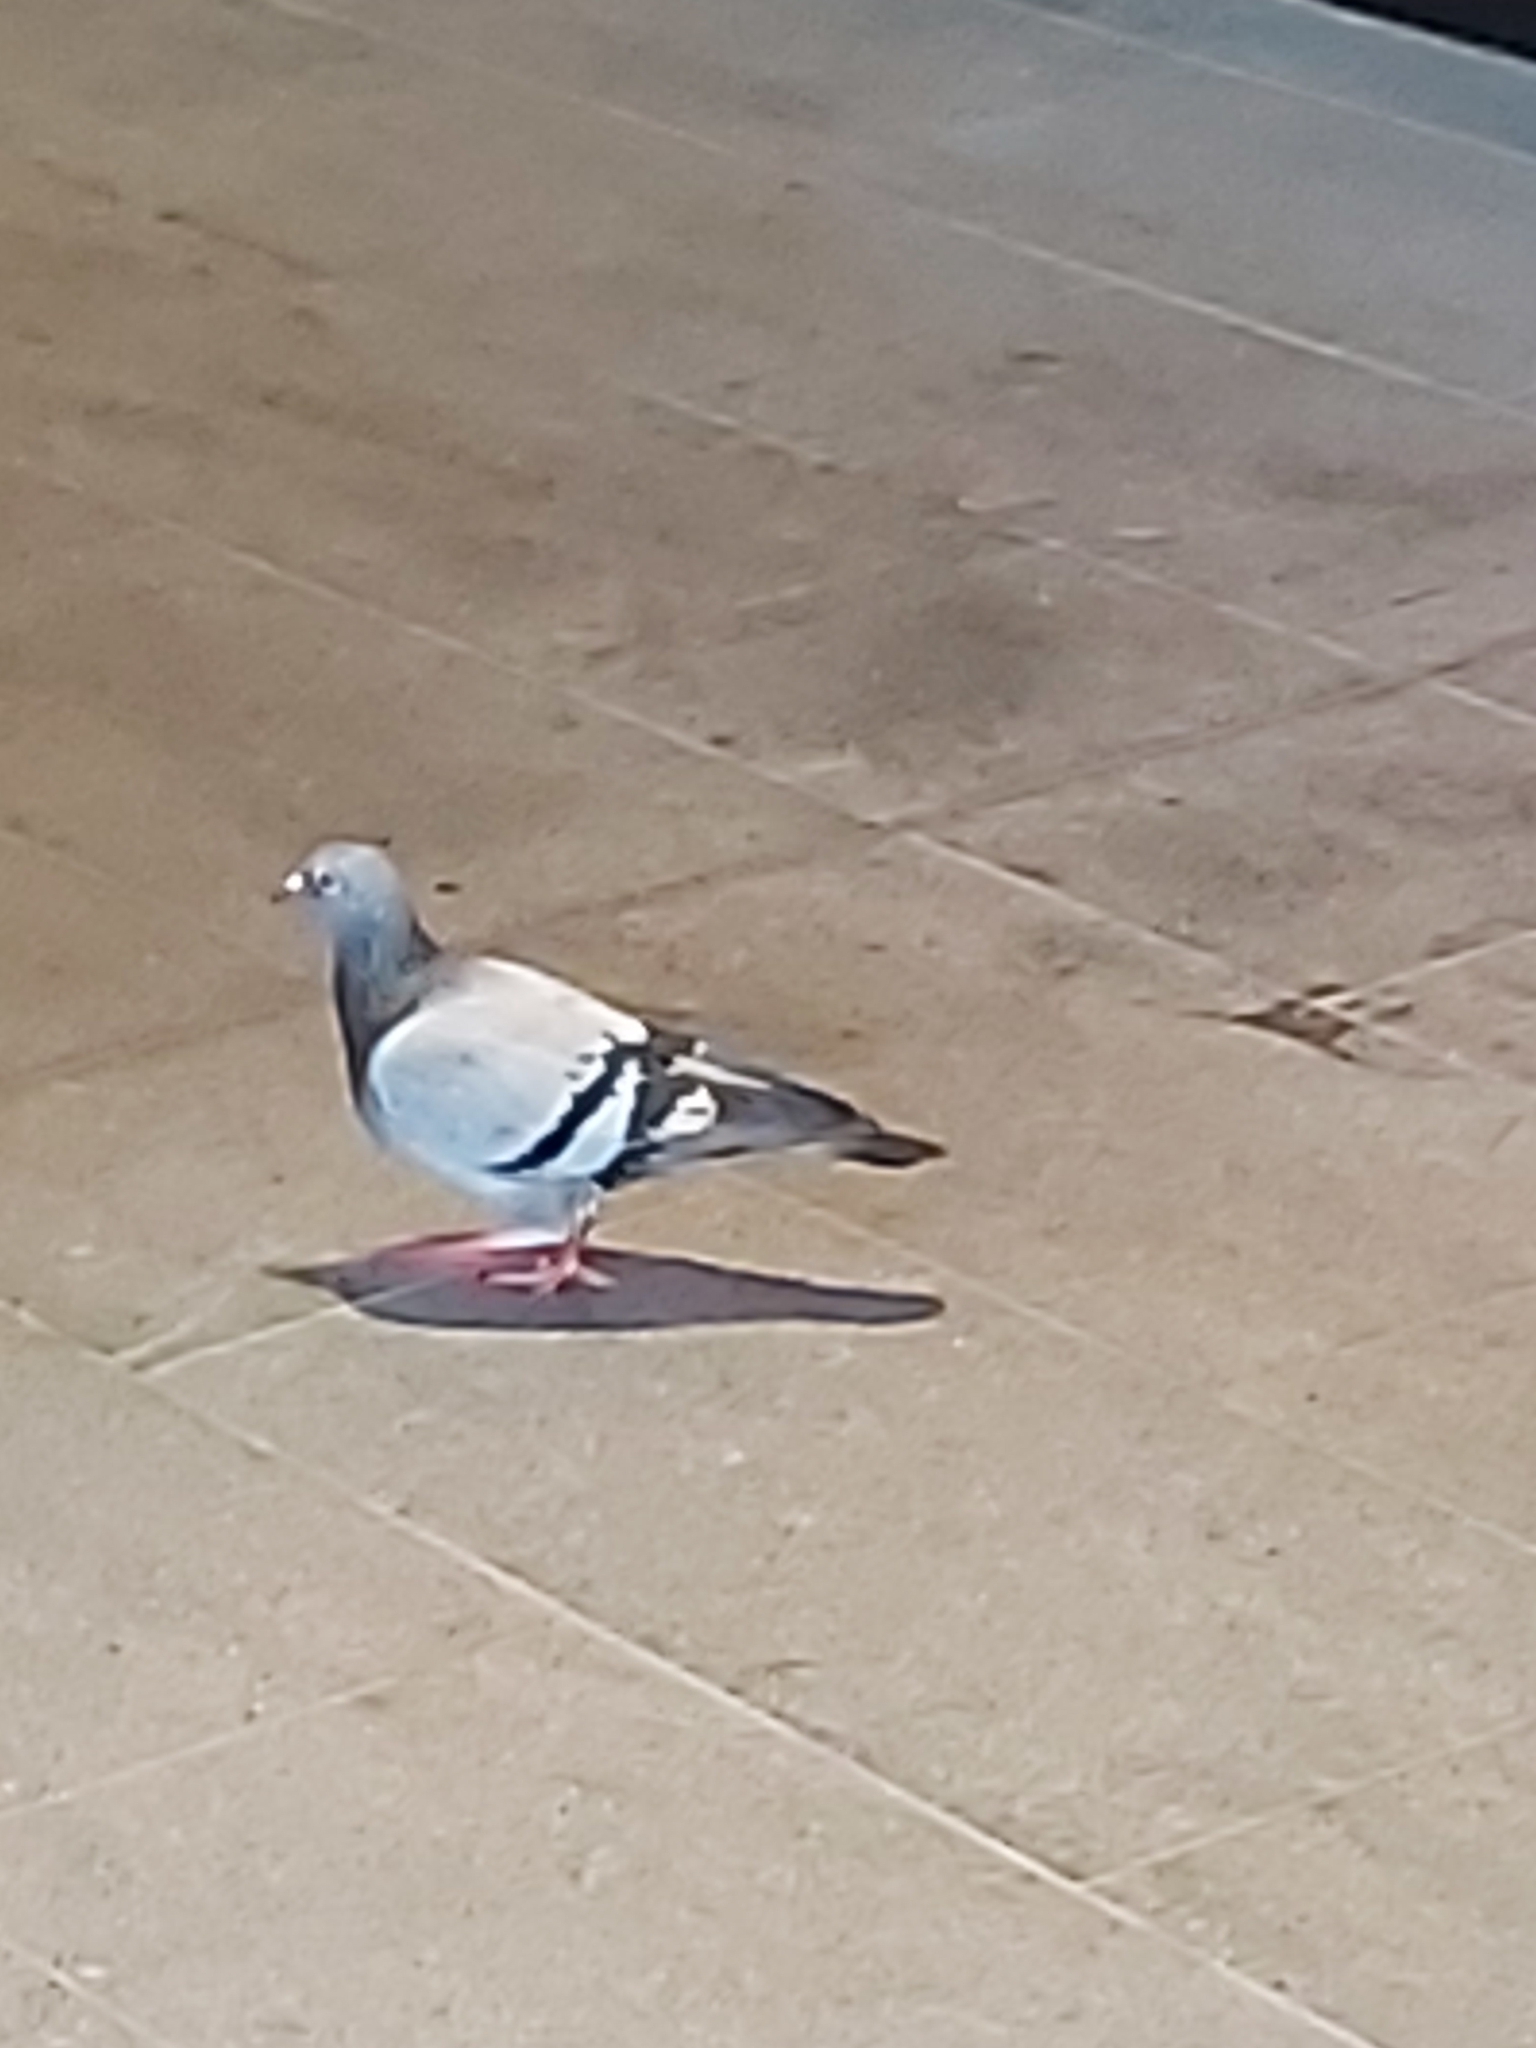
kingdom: Animalia
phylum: Chordata
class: Aves
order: Columbiformes
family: Columbidae
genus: Columba
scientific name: Columba livia
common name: Rock pigeon
